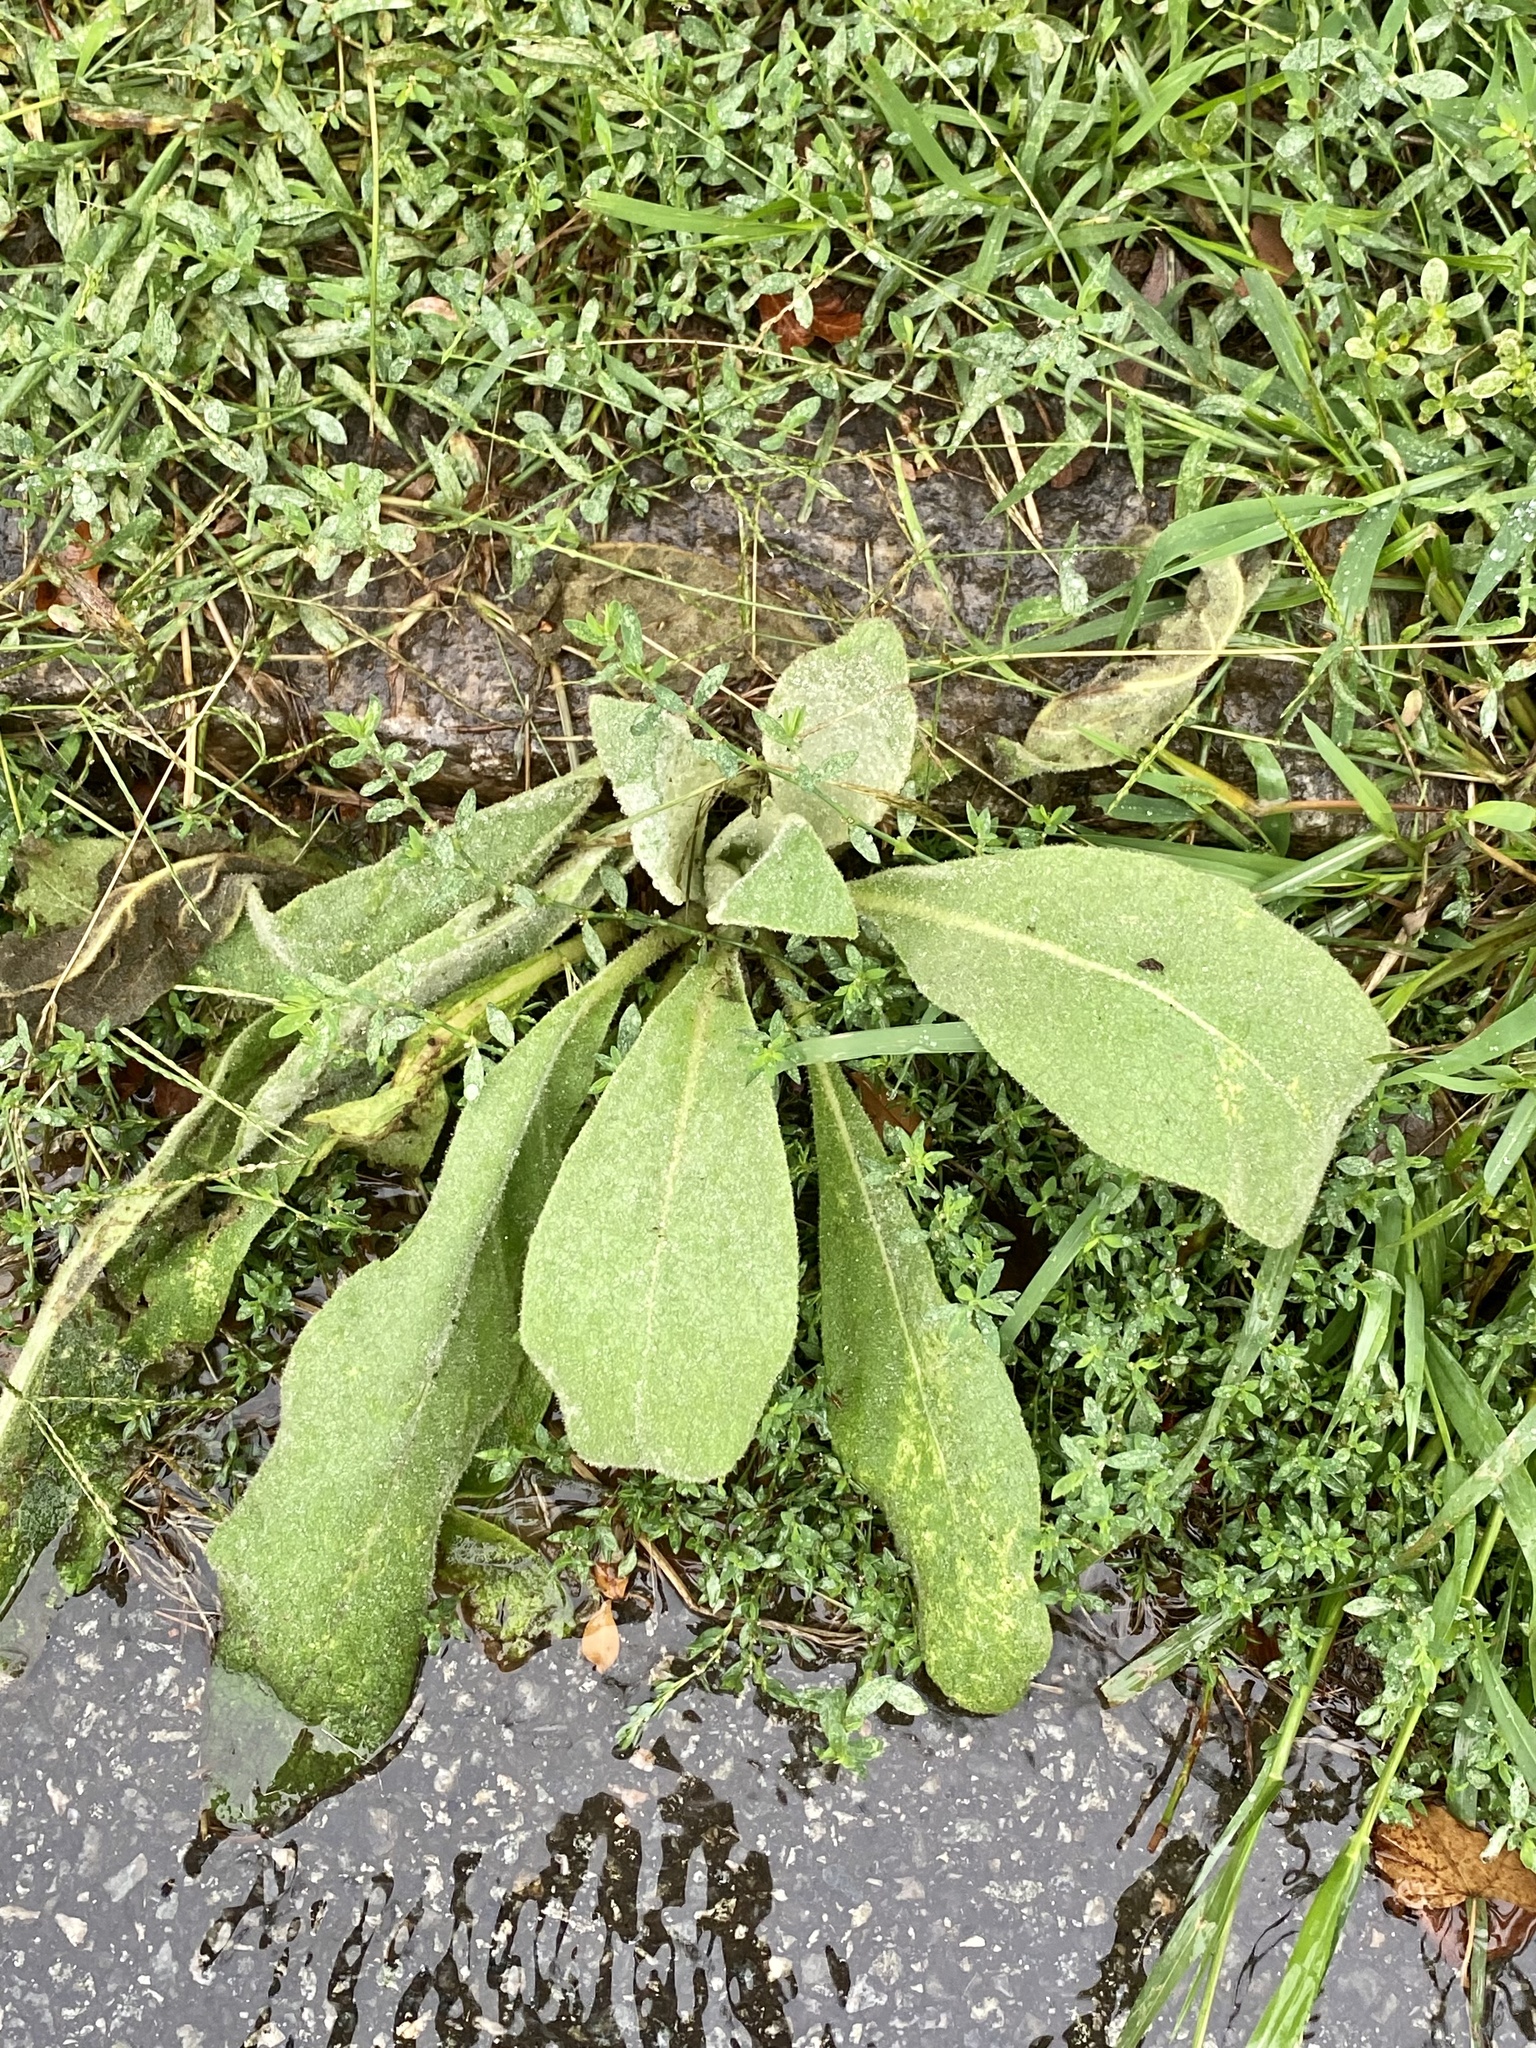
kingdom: Plantae
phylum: Tracheophyta
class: Magnoliopsida
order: Lamiales
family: Scrophulariaceae
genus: Verbascum
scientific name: Verbascum thapsus
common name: Common mullein
